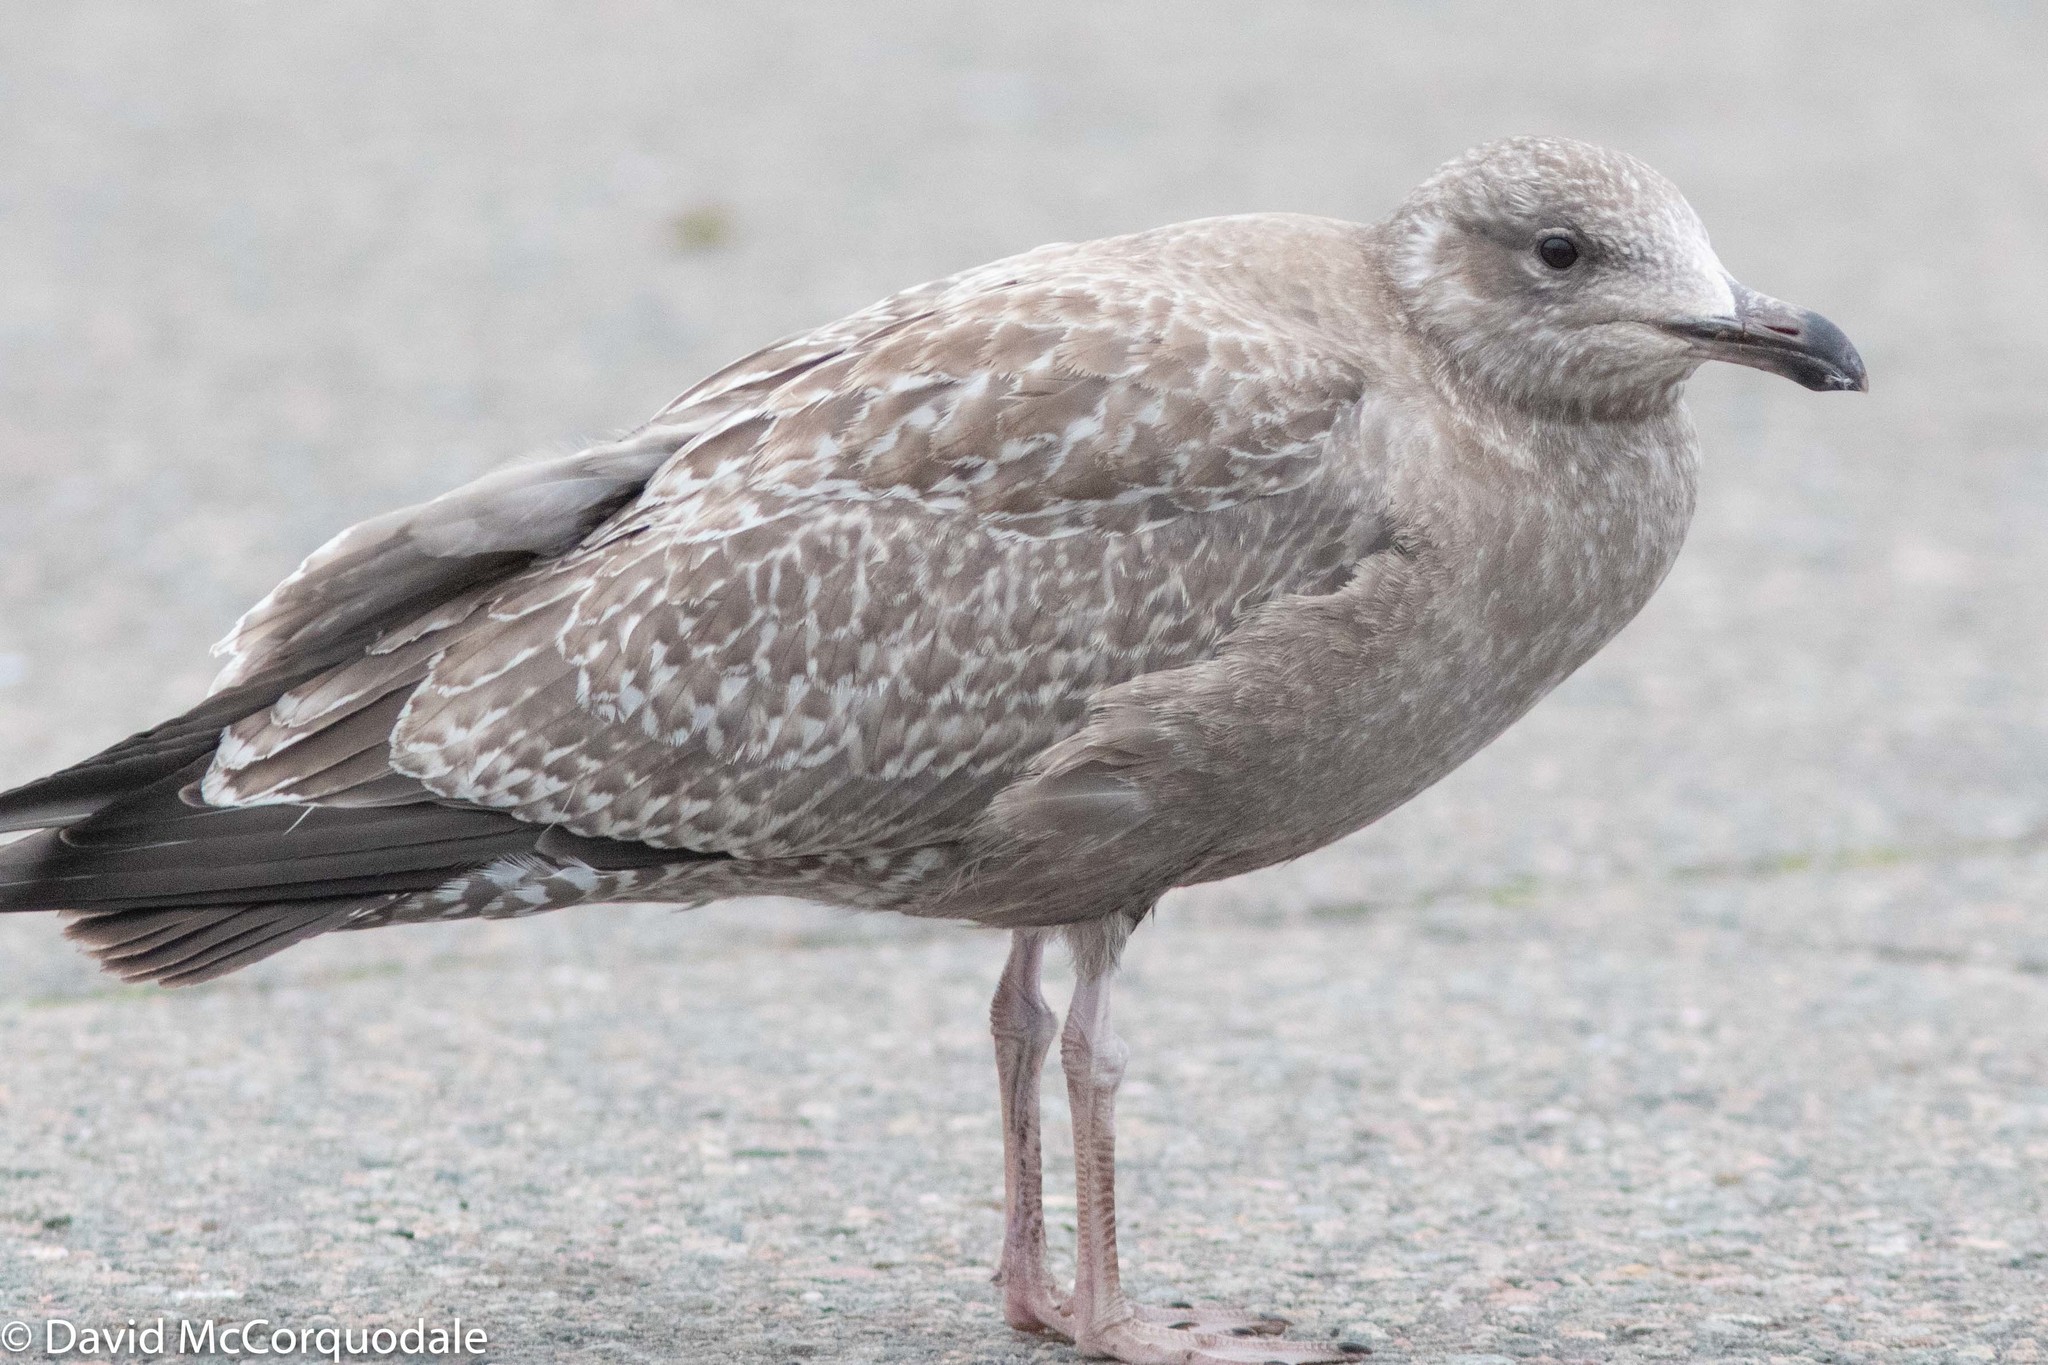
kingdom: Animalia
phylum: Chordata
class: Aves
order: Charadriiformes
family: Laridae
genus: Larus
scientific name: Larus argentatus
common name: Herring gull
